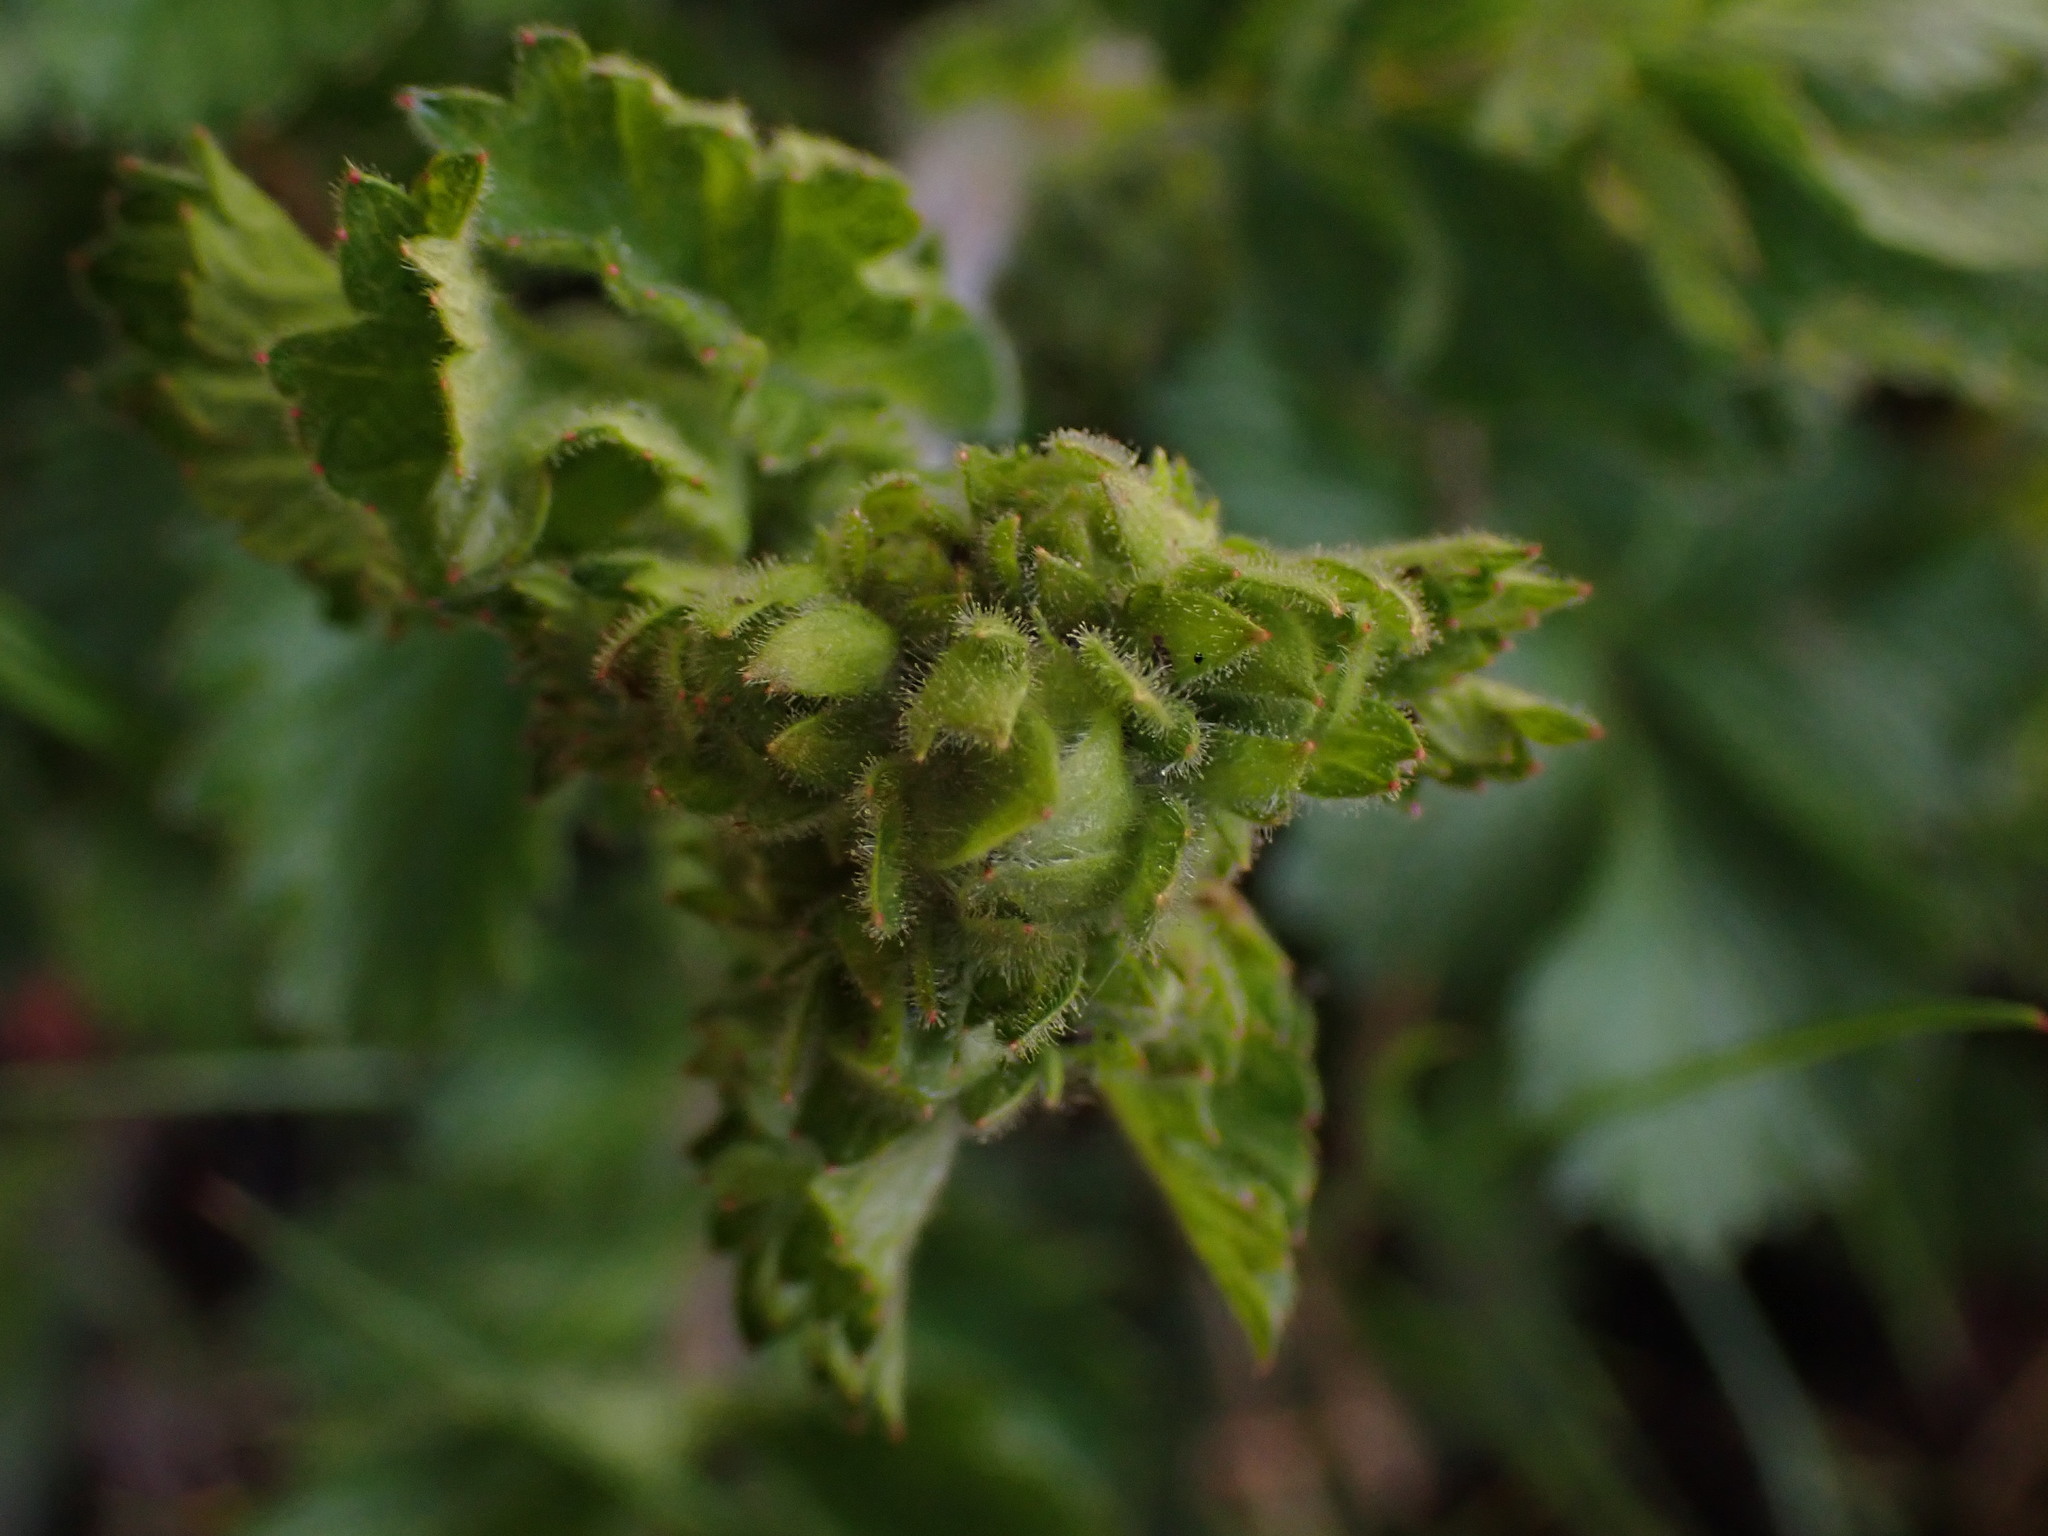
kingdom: Plantae
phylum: Tracheophyta
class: Magnoliopsida
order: Rosales
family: Rosaceae
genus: Drymocallis
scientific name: Drymocallis glandulosa
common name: Sticky cinquefoil
